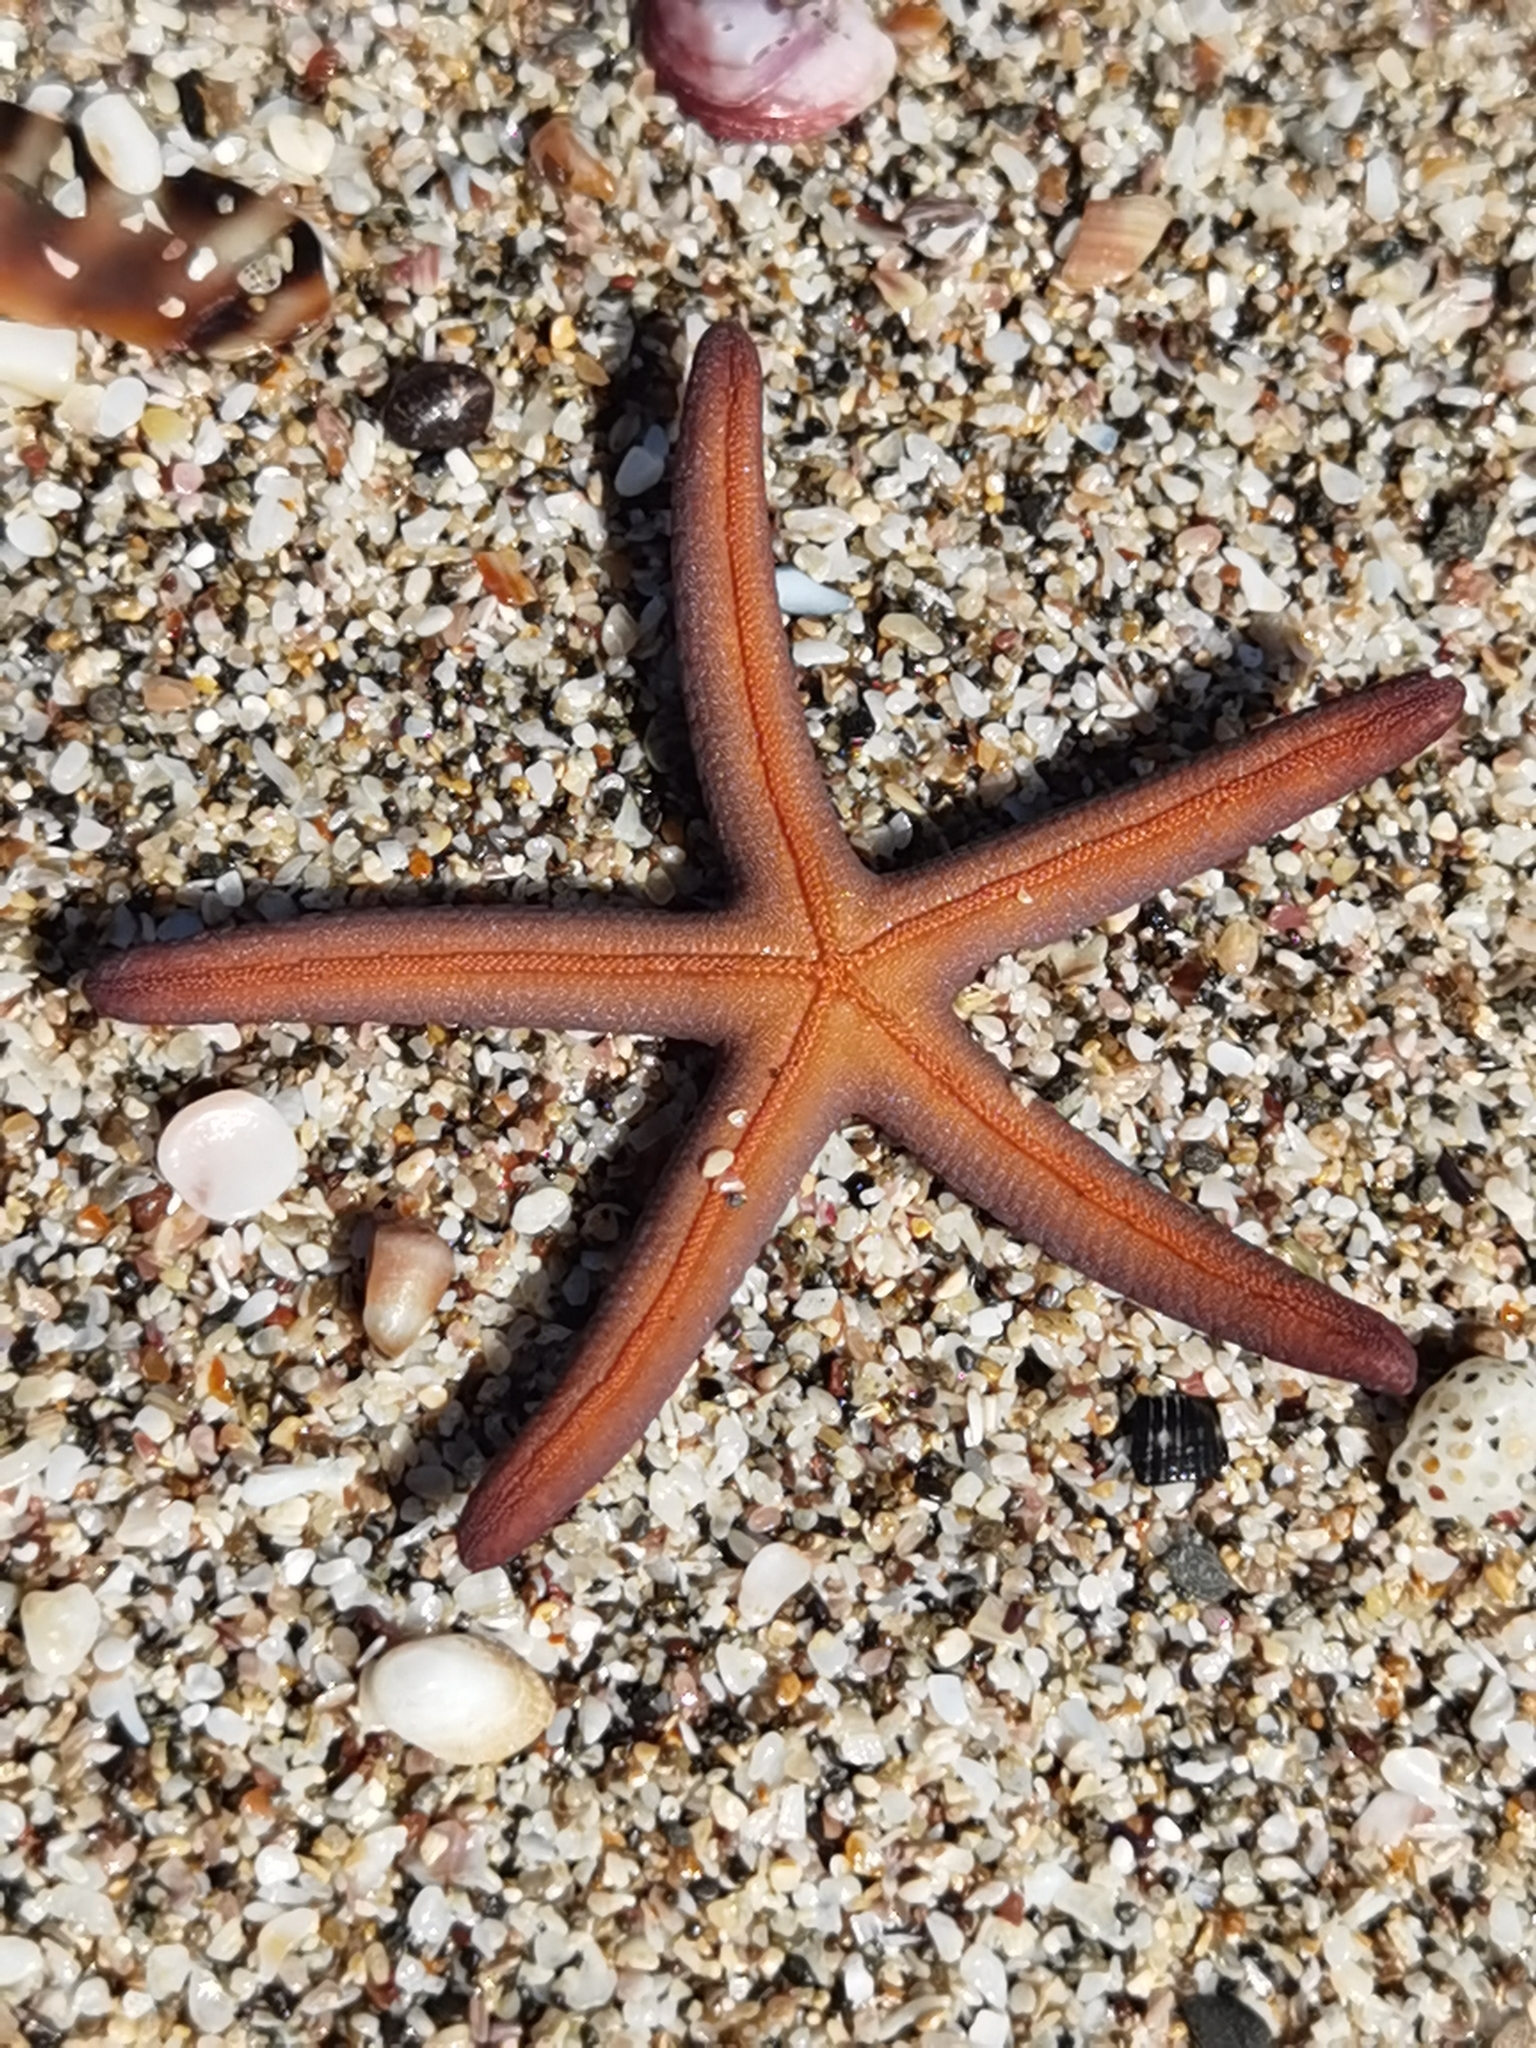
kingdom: Animalia
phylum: Echinodermata
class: Asteroidea
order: Valvatida
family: Ophidiasteridae
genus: Phataria
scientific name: Phataria unifascialis
